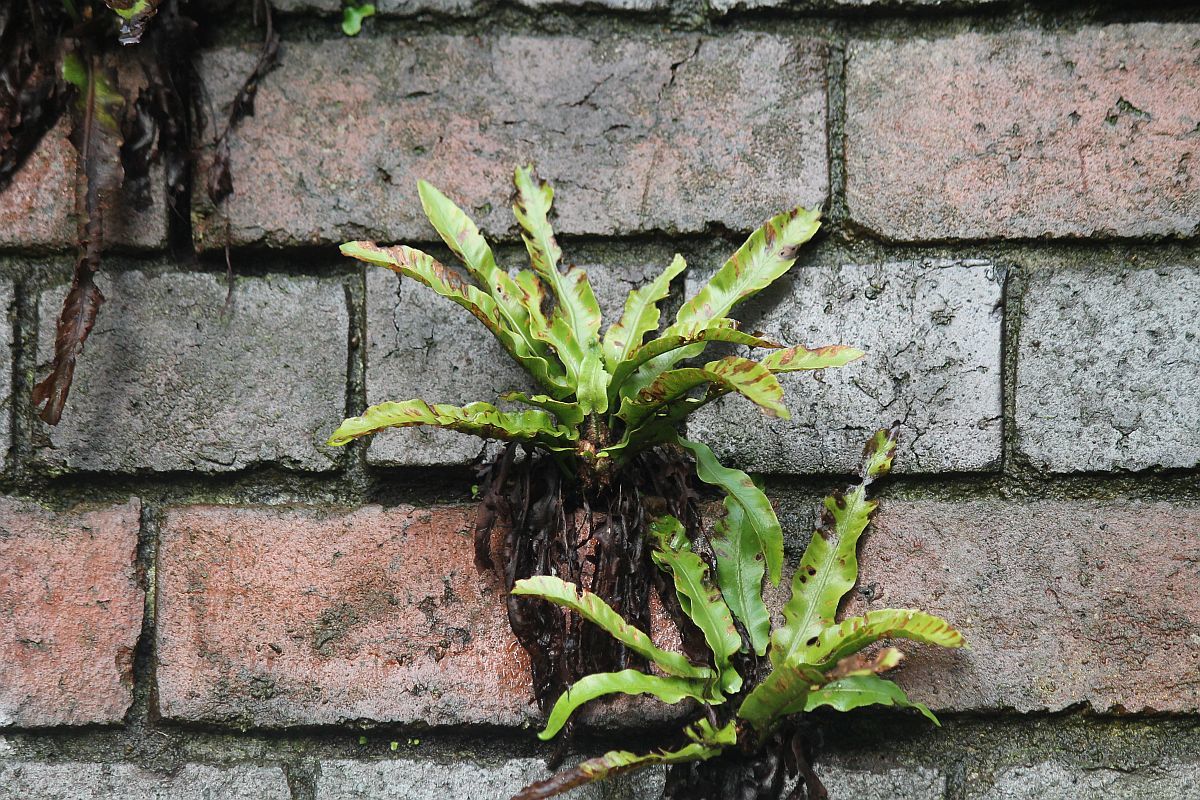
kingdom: Plantae
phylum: Tracheophyta
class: Polypodiopsida
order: Polypodiales
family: Aspleniaceae
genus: Asplenium
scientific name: Asplenium scolopendrium
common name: Hart's-tongue fern
